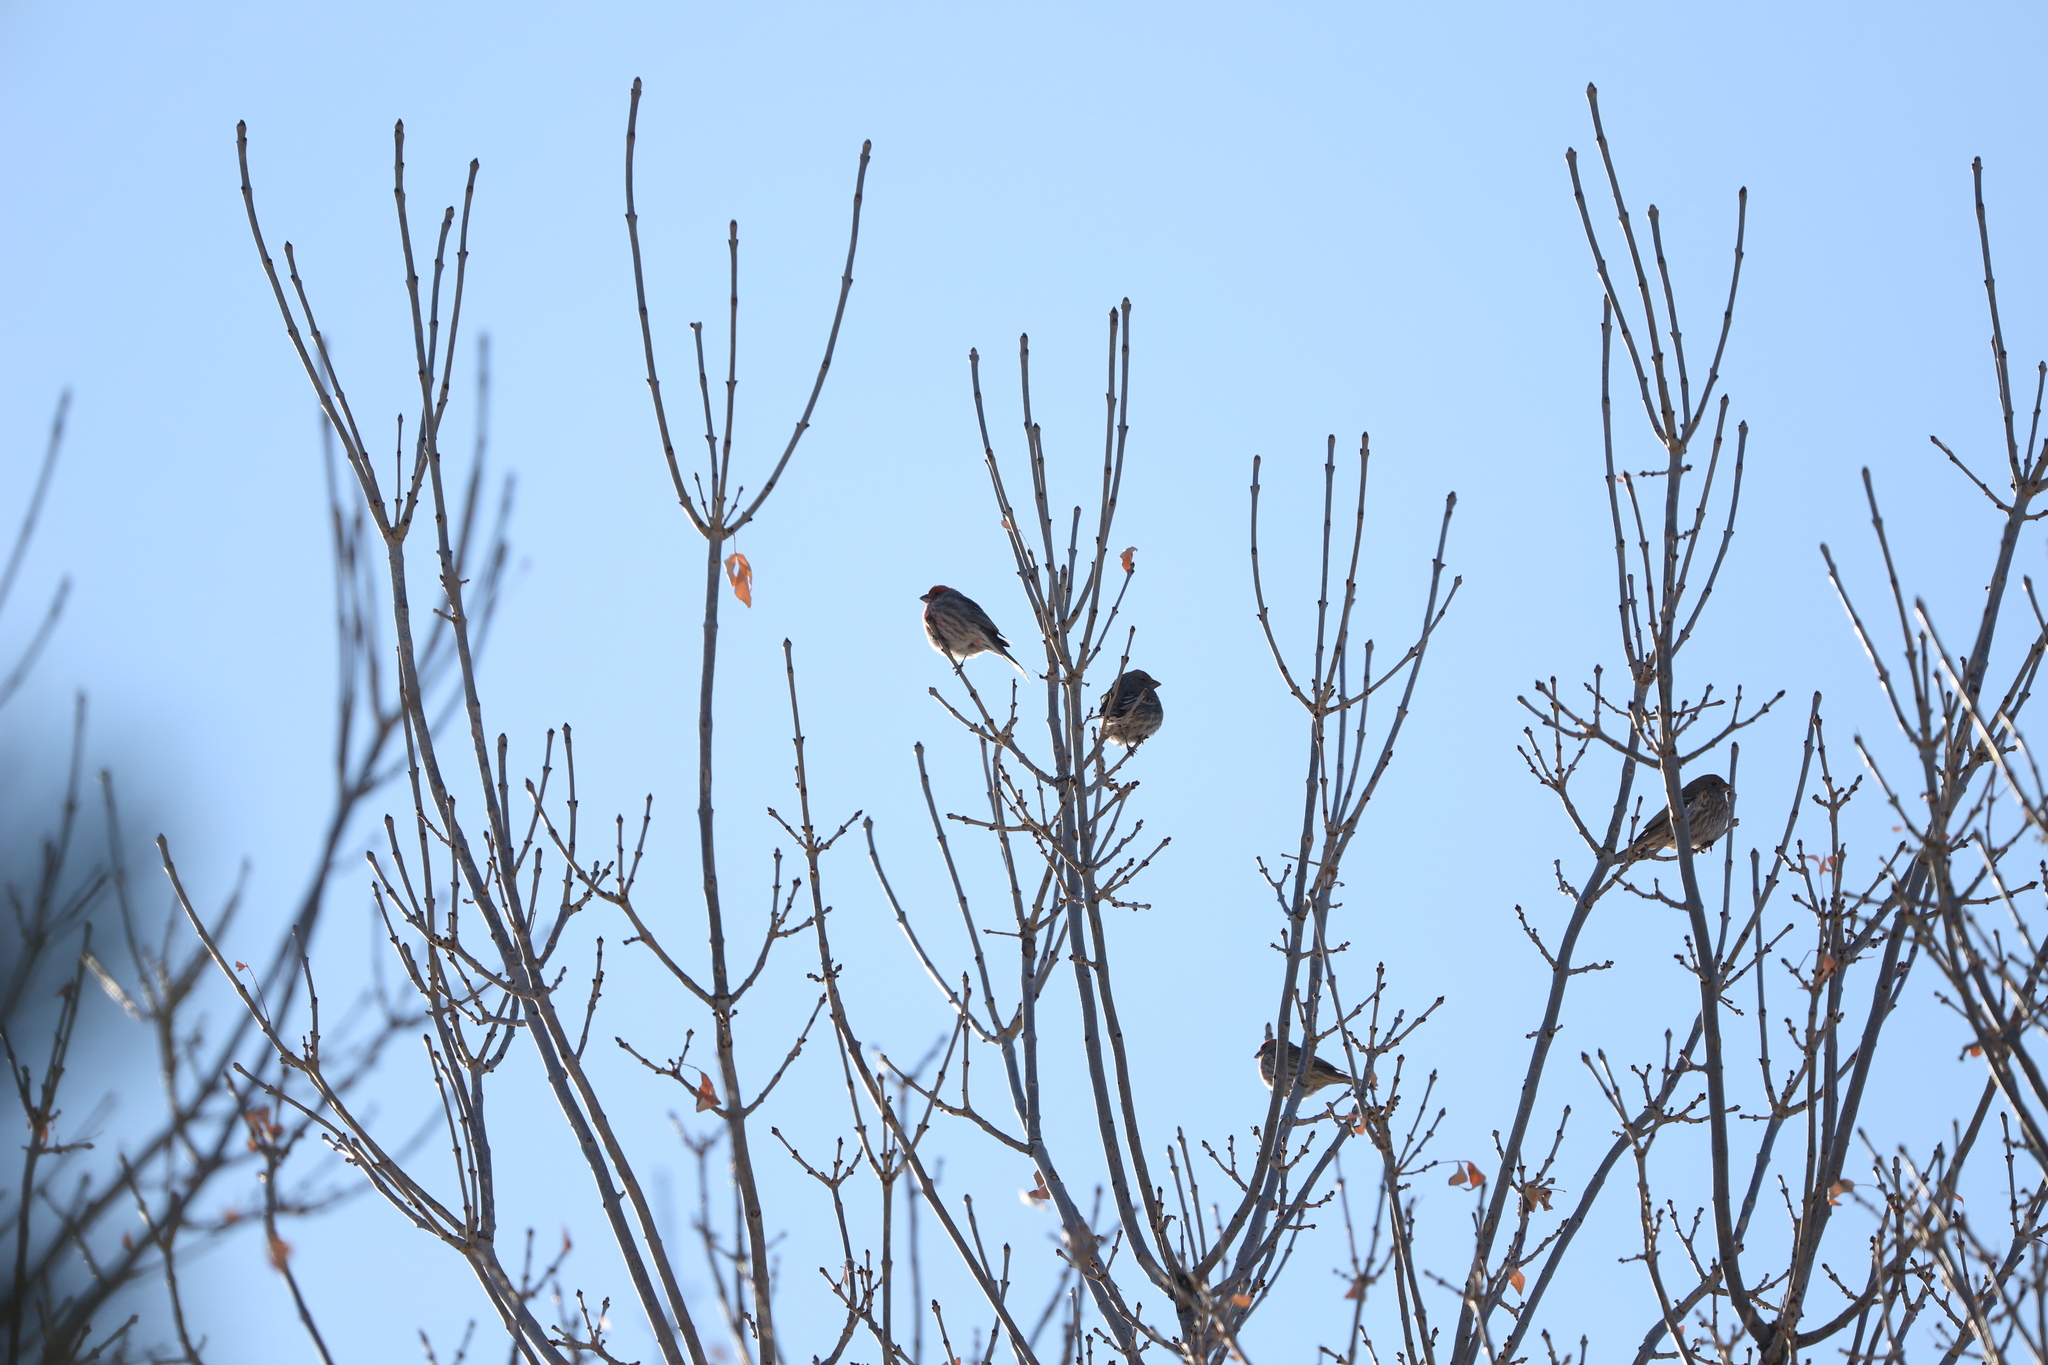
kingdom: Animalia
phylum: Chordata
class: Aves
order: Passeriformes
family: Fringillidae
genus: Haemorhous
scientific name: Haemorhous mexicanus
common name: House finch
